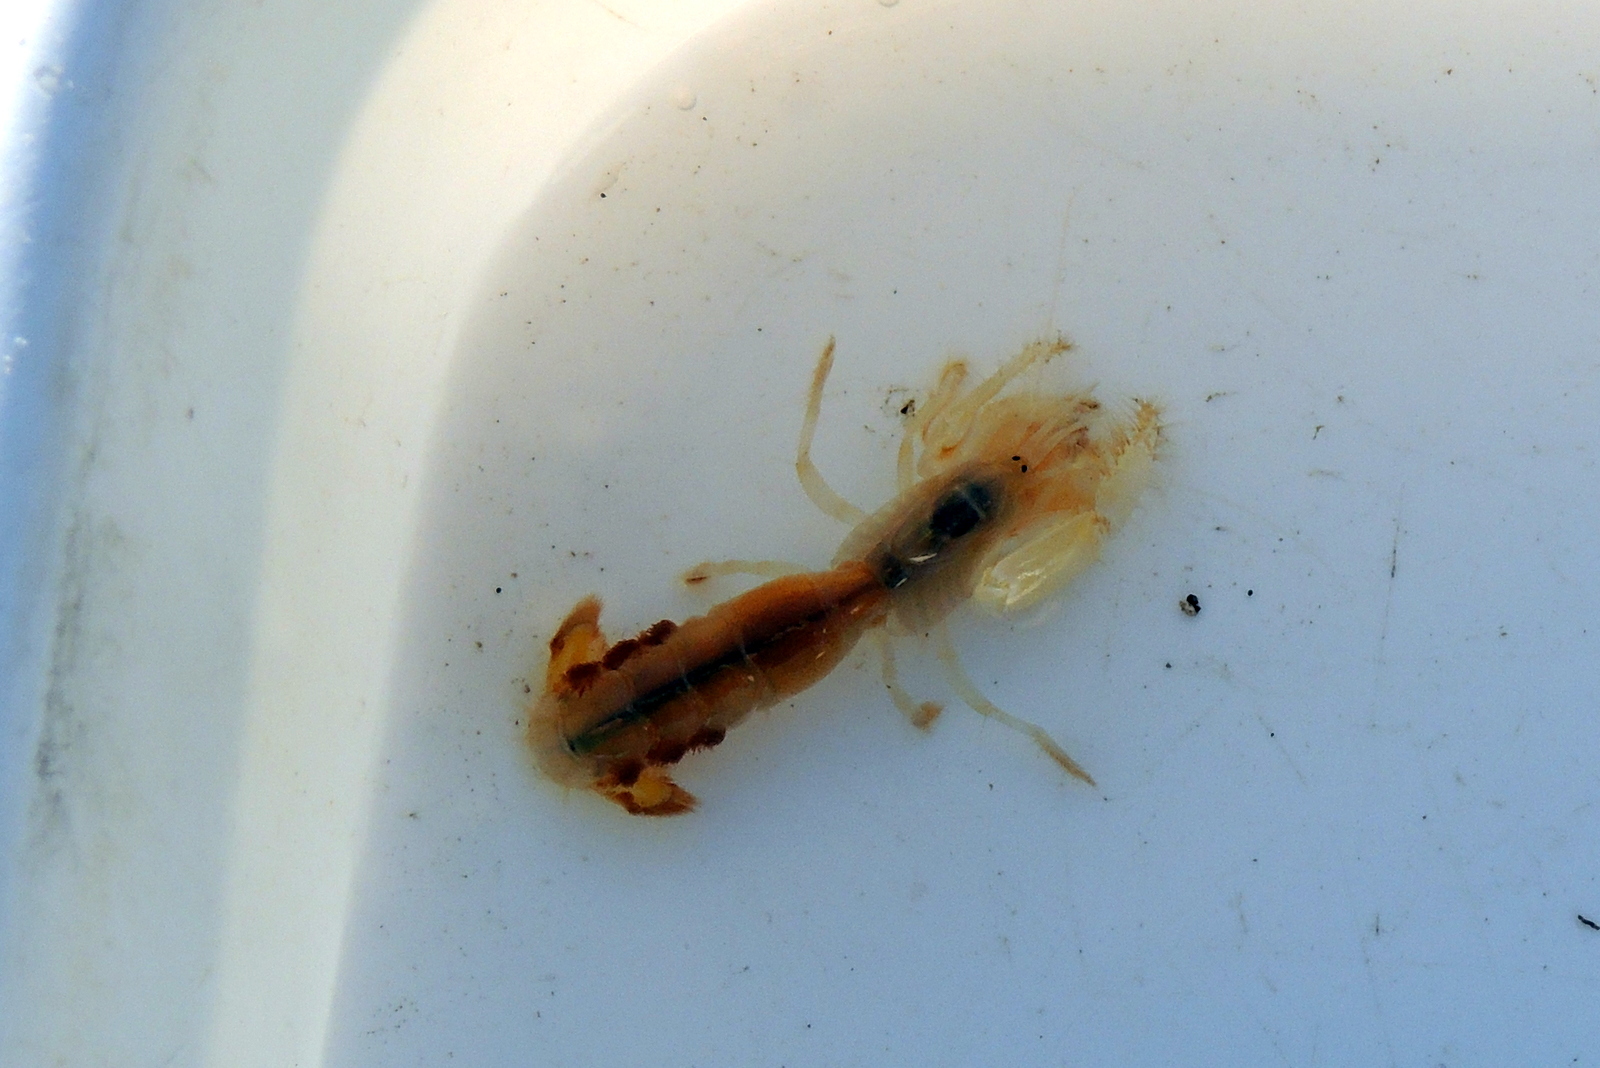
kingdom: Animalia
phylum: Arthropoda
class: Malacostraca
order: Decapoda
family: Callianassidae
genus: Neotrypaea
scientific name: Neotrypaea biffari
